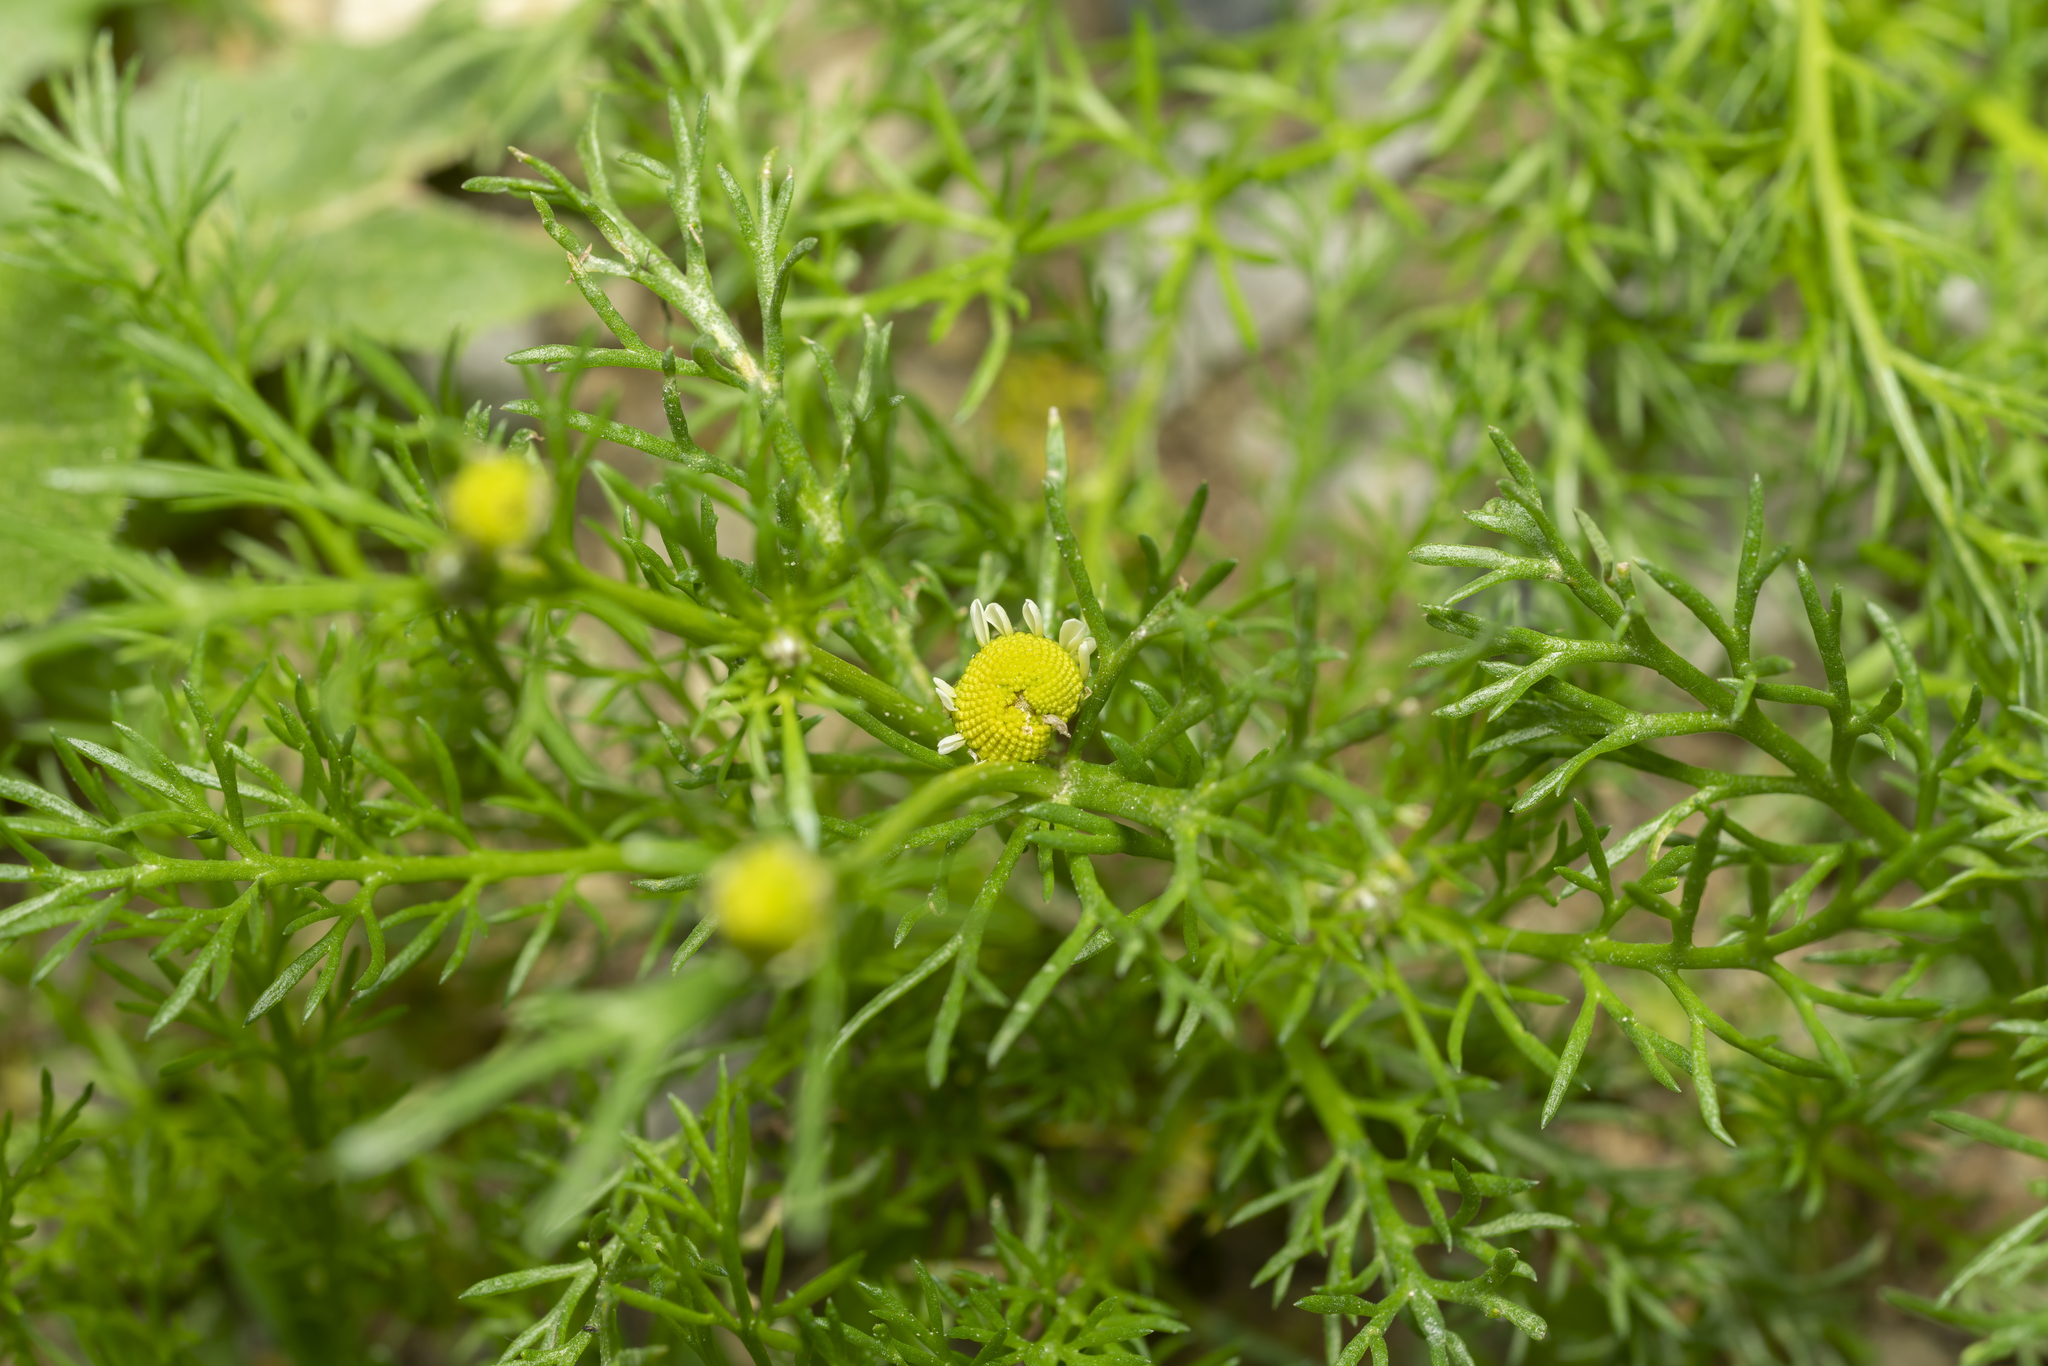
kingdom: Plantae
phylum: Tracheophyta
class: Magnoliopsida
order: Asterales
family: Asteraceae
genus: Matricaria
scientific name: Matricaria chamomilla
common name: Scented mayweed
